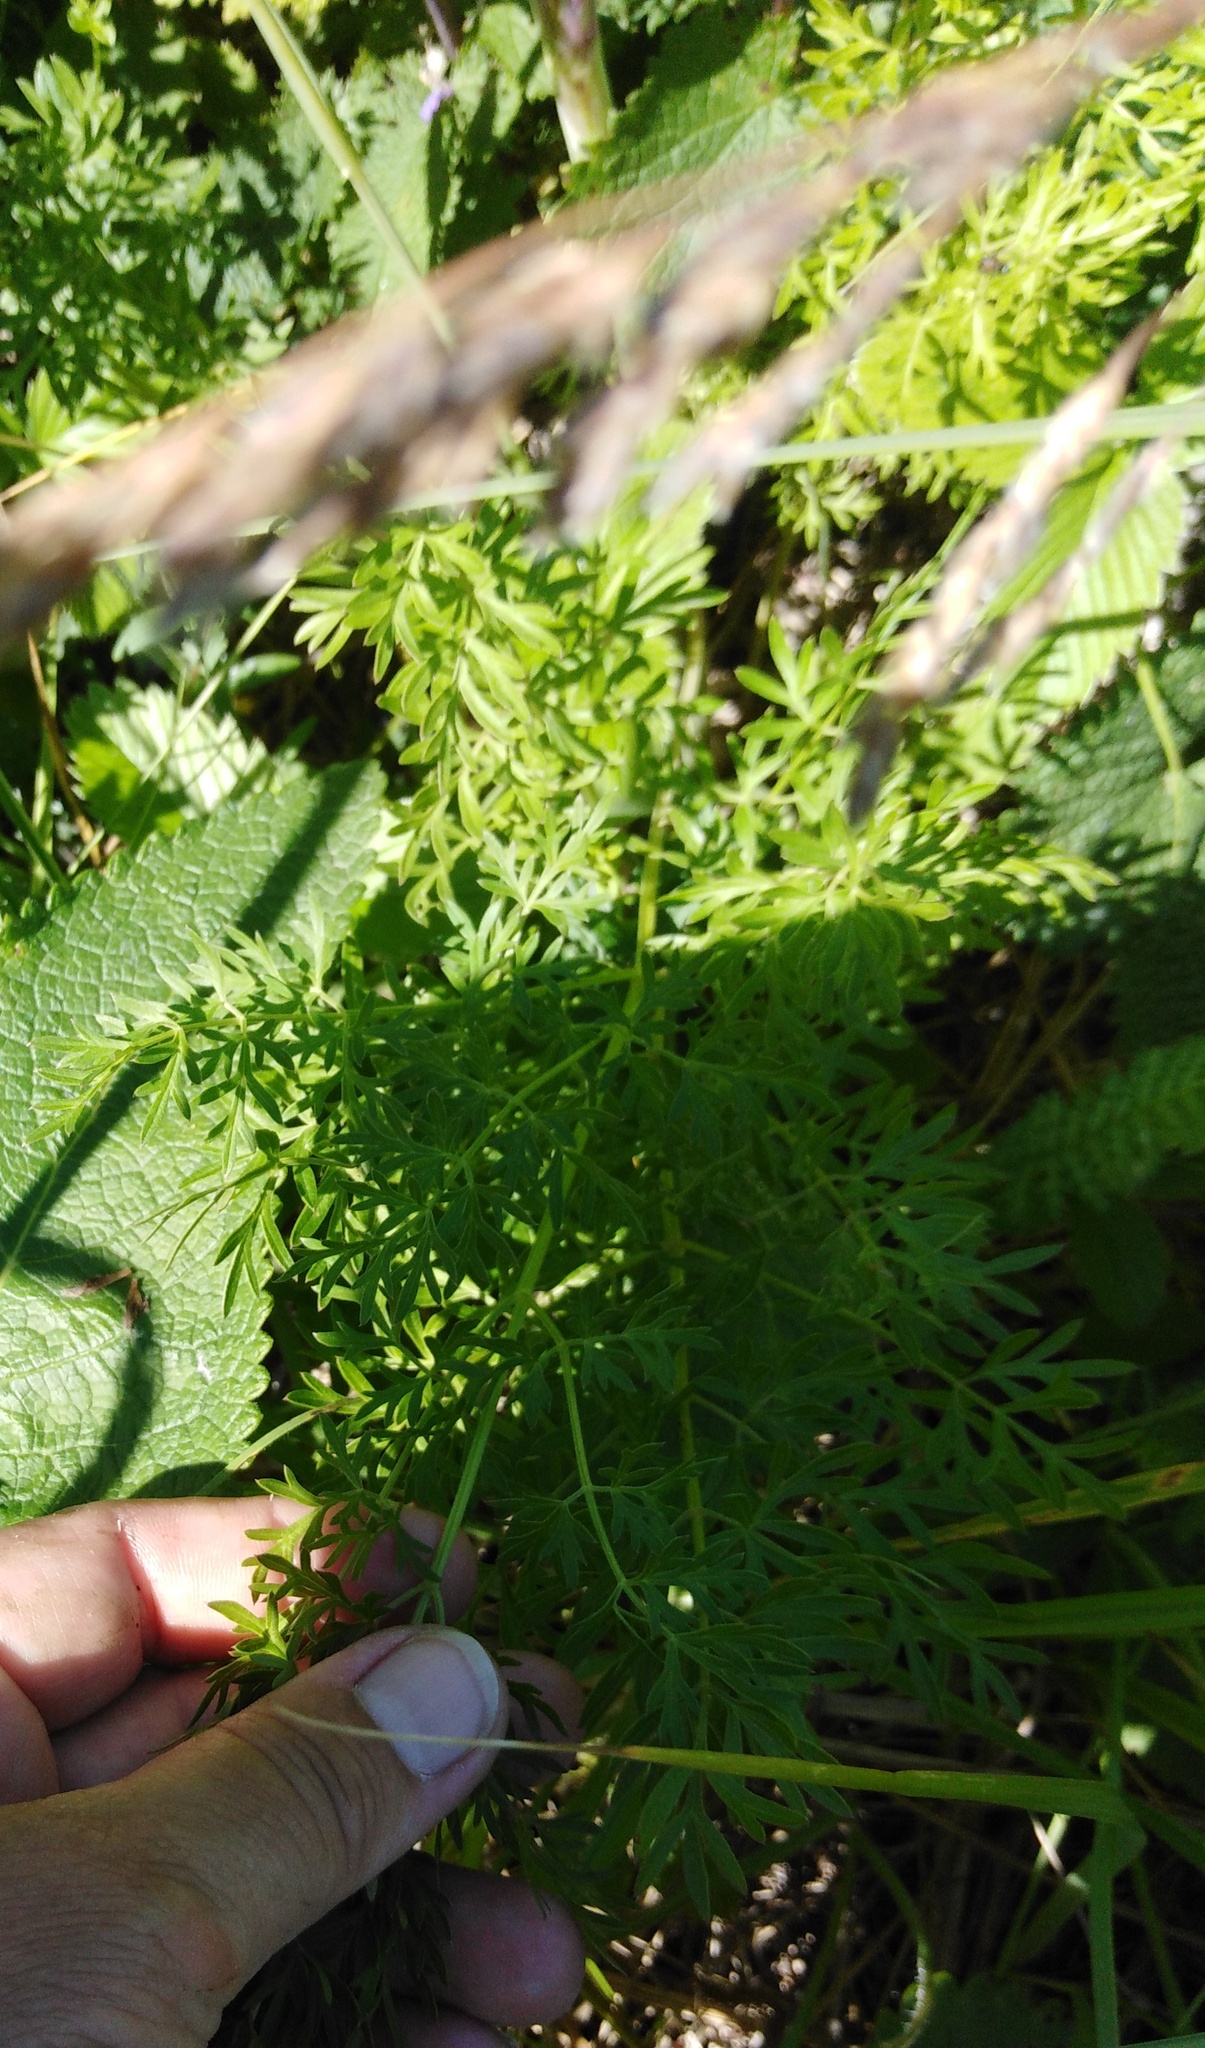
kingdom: Plantae
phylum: Tracheophyta
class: Magnoliopsida
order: Apiales
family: Apiaceae
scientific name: Apiaceae
